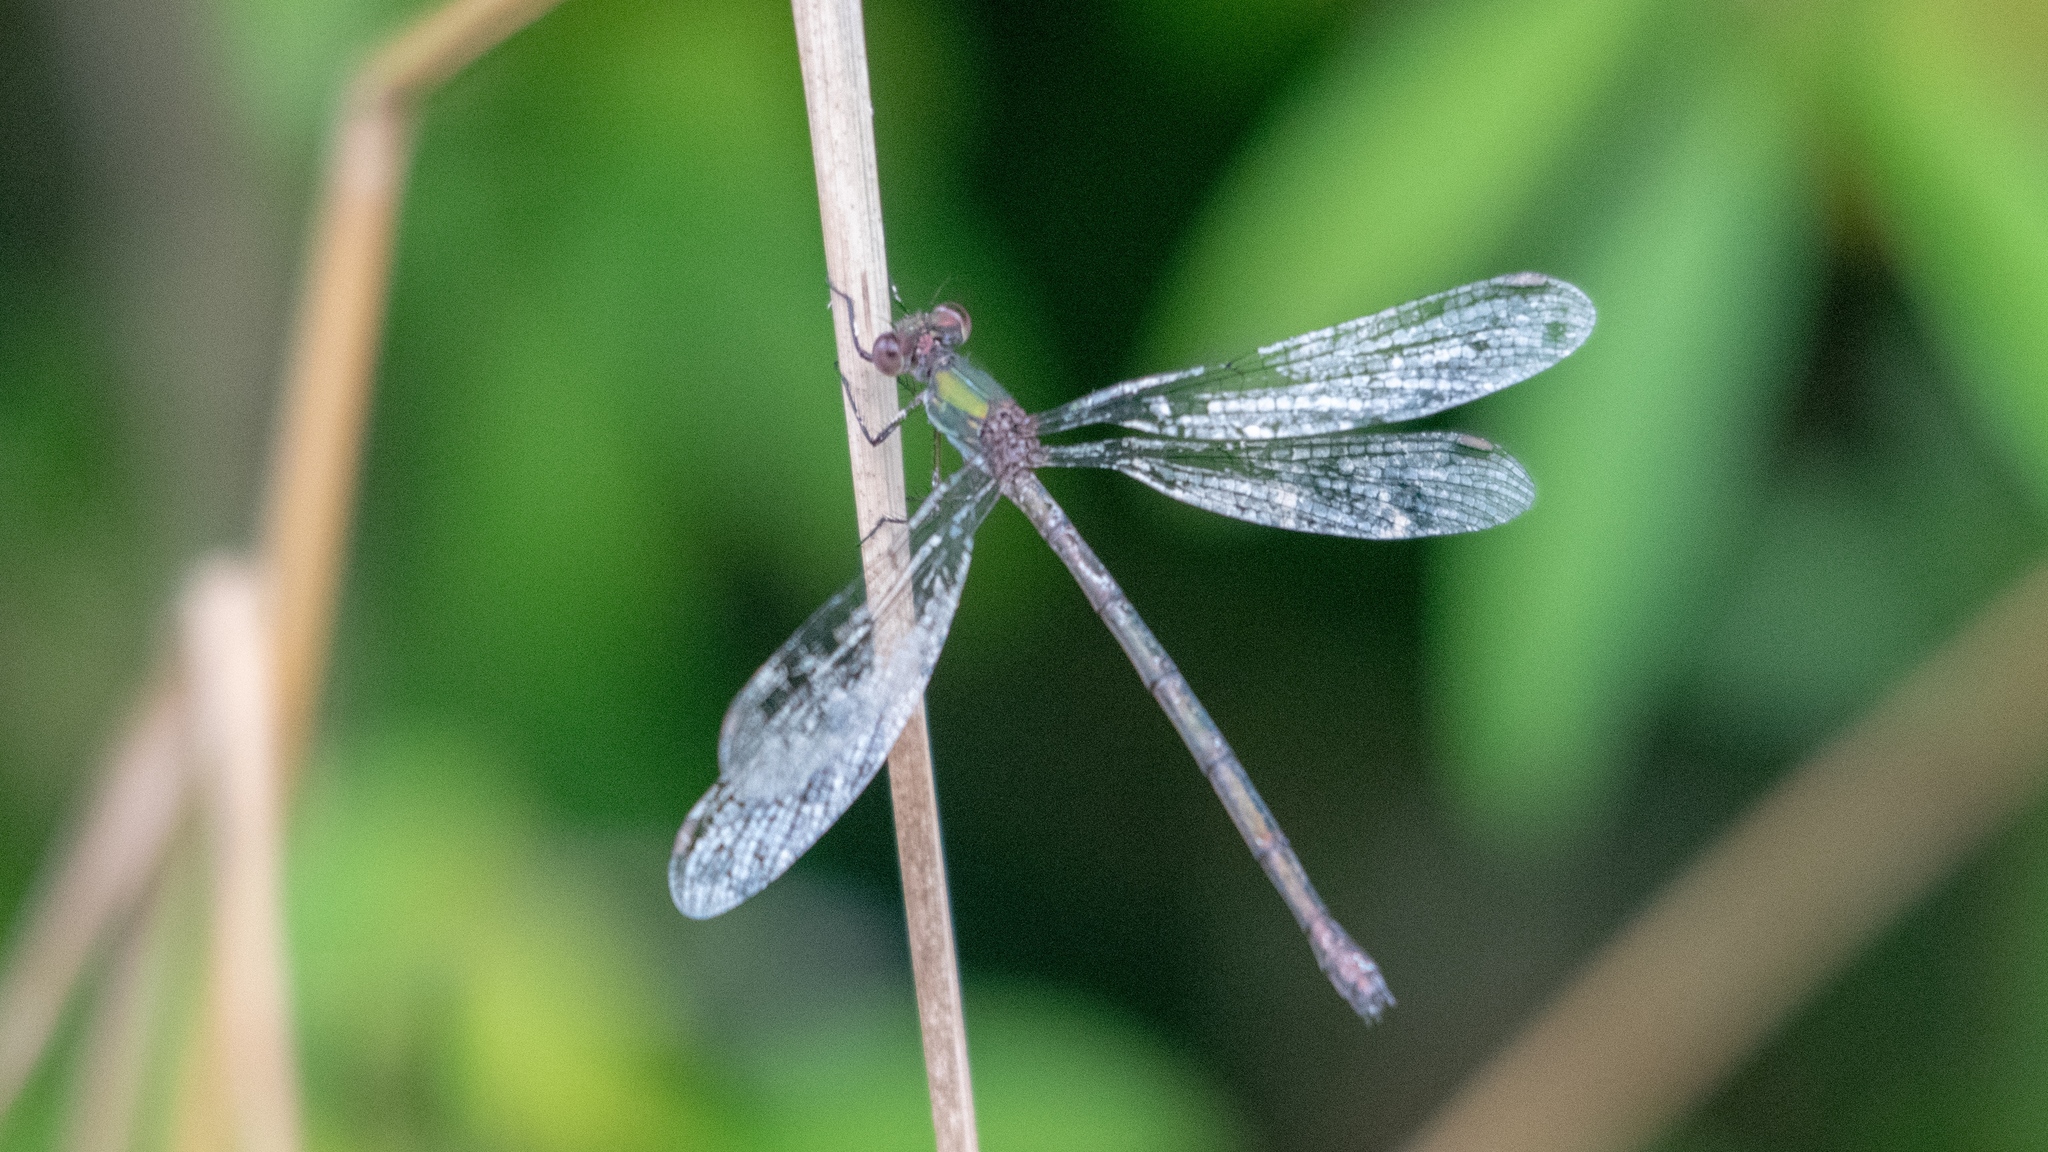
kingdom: Animalia
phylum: Arthropoda
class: Insecta
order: Odonata
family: Lestidae
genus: Chalcolestes
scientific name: Chalcolestes viridis
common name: Green emerald damselfly
